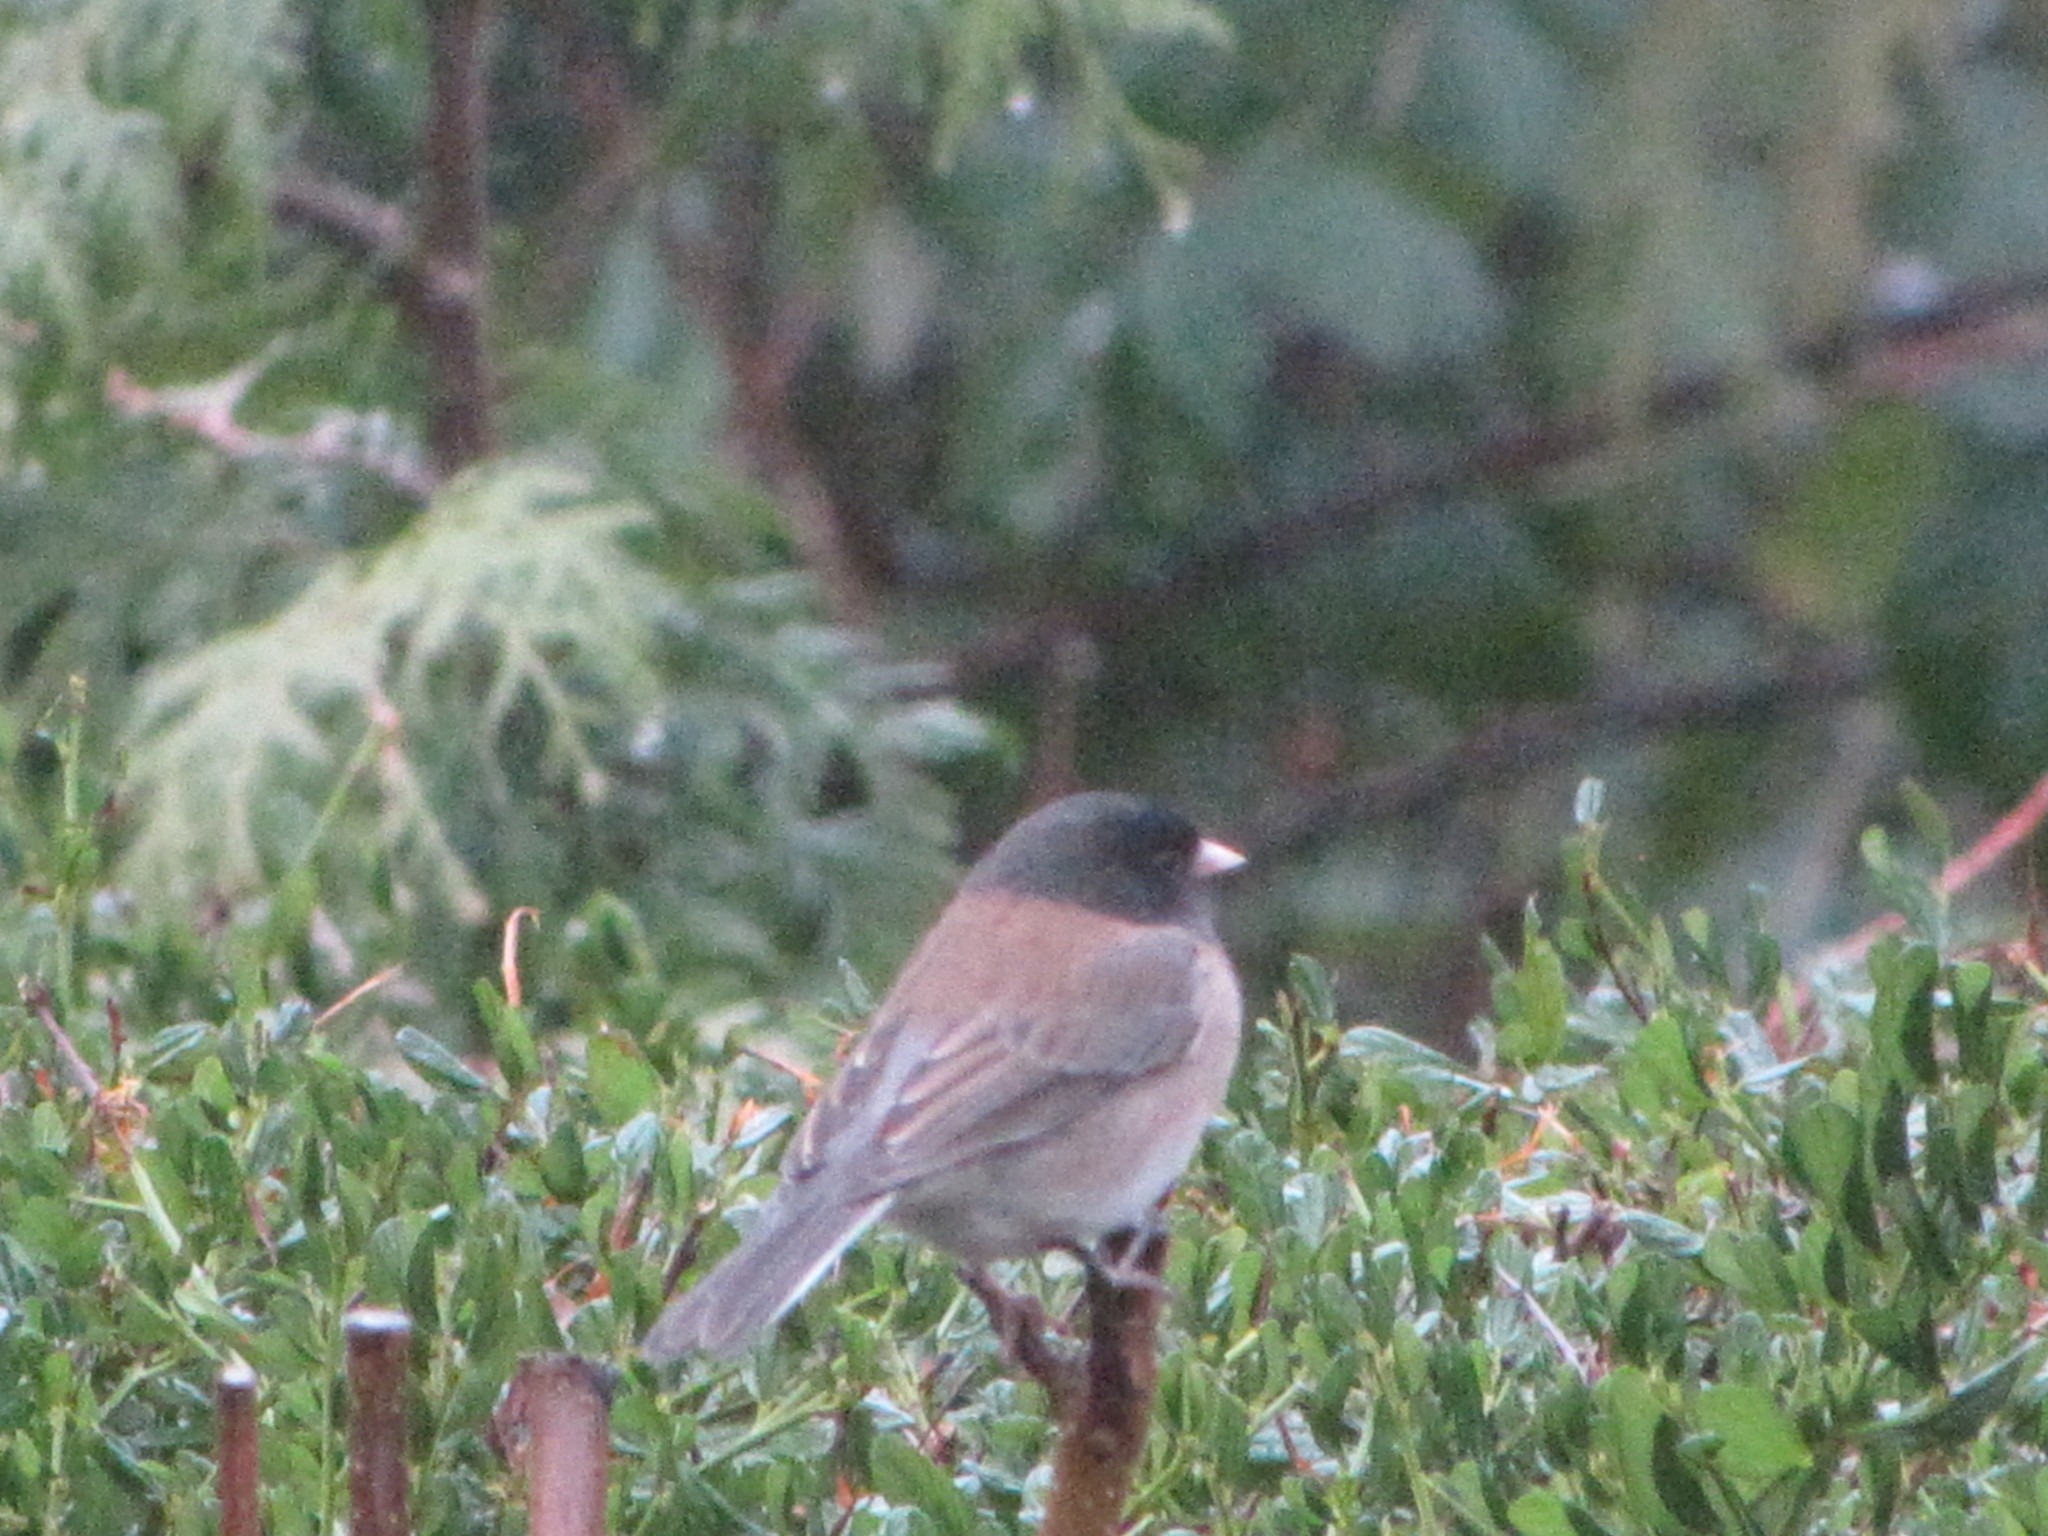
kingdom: Animalia
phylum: Chordata
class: Aves
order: Passeriformes
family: Passerellidae
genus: Junco
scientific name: Junco hyemalis
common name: Dark-eyed junco
